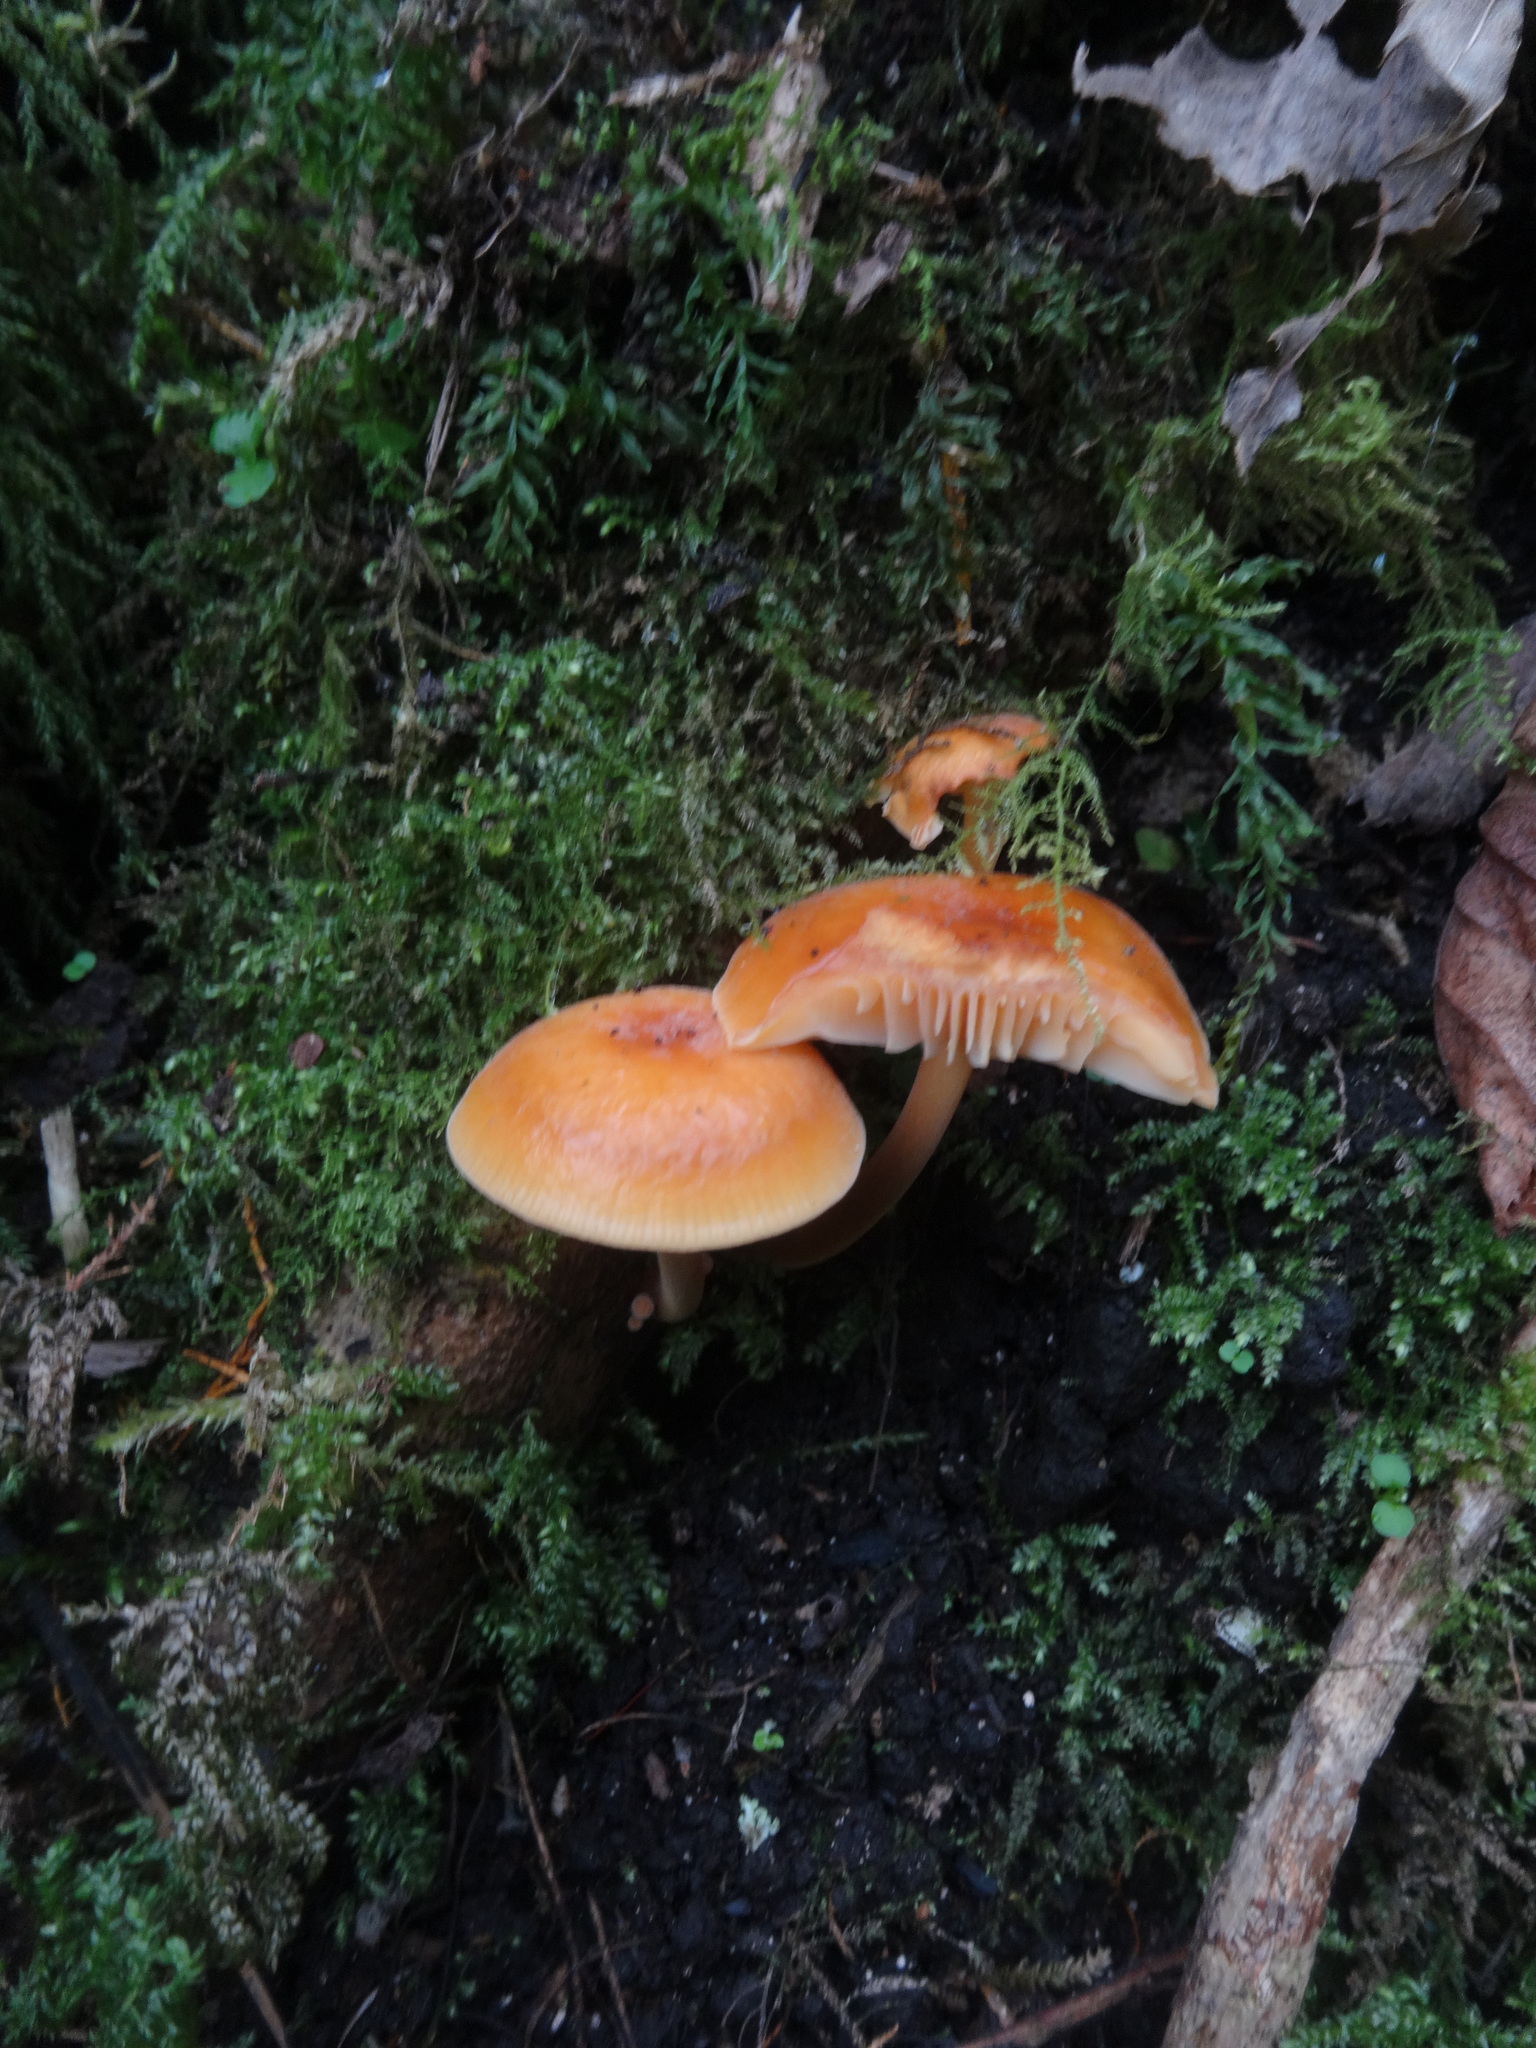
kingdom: Fungi
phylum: Basidiomycota
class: Agaricomycetes
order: Agaricales
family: Physalacriaceae
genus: Flammulina
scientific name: Flammulina
